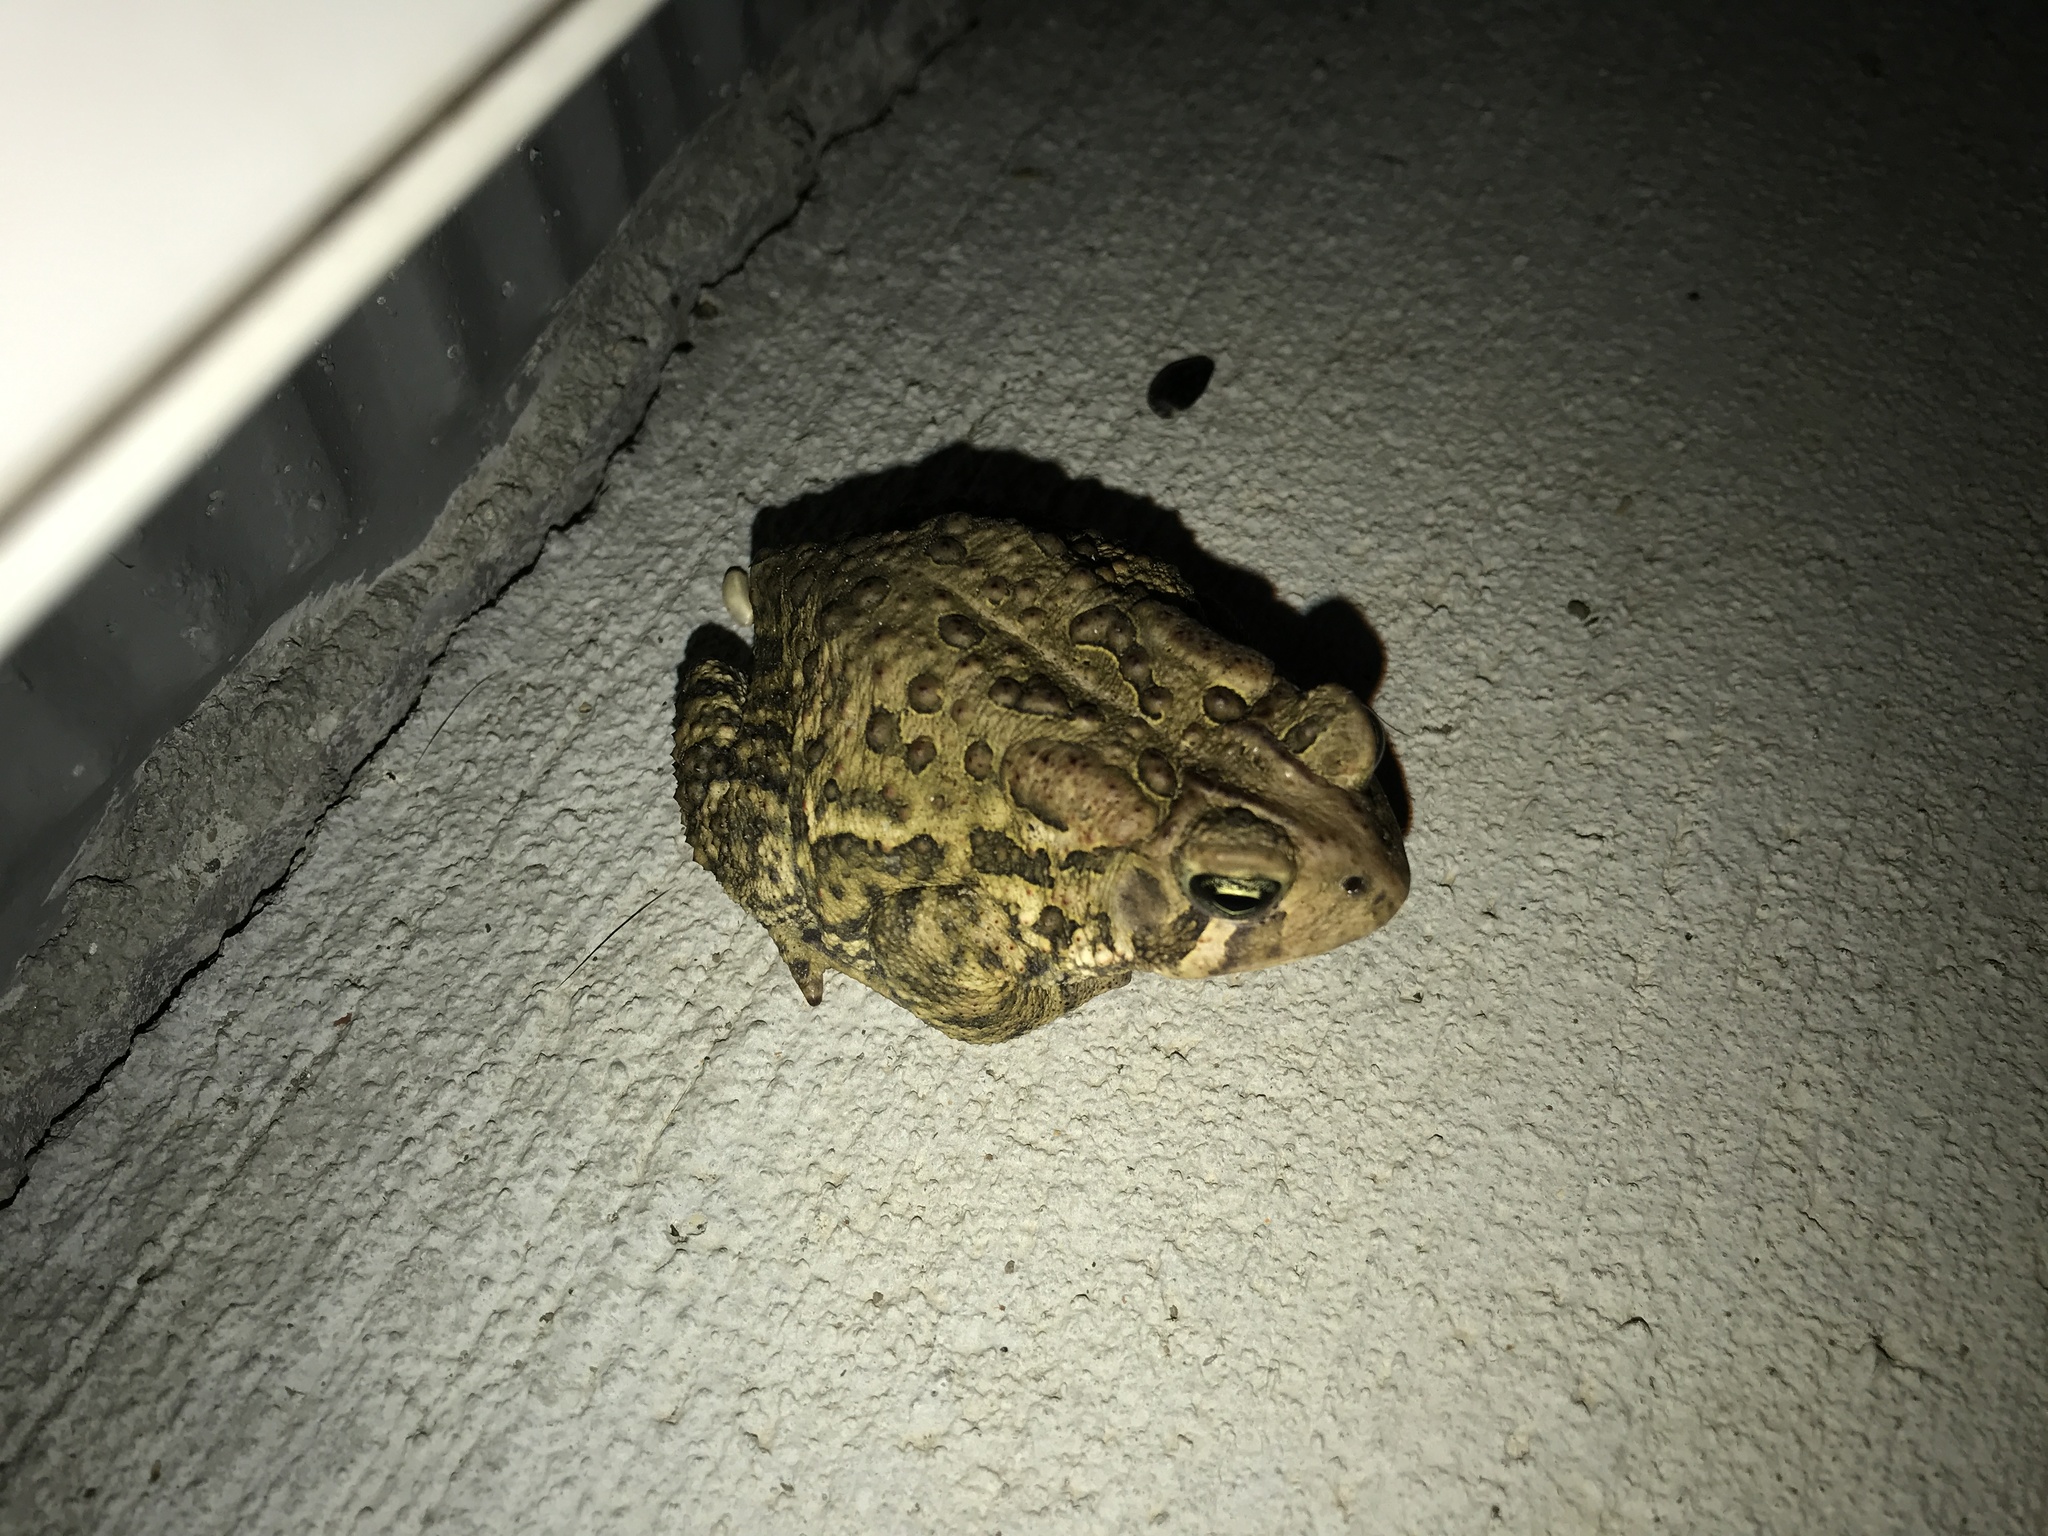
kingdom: Animalia
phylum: Chordata
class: Amphibia
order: Anura
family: Bufonidae
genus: Anaxyrus
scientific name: Anaxyrus americanus
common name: American toad
